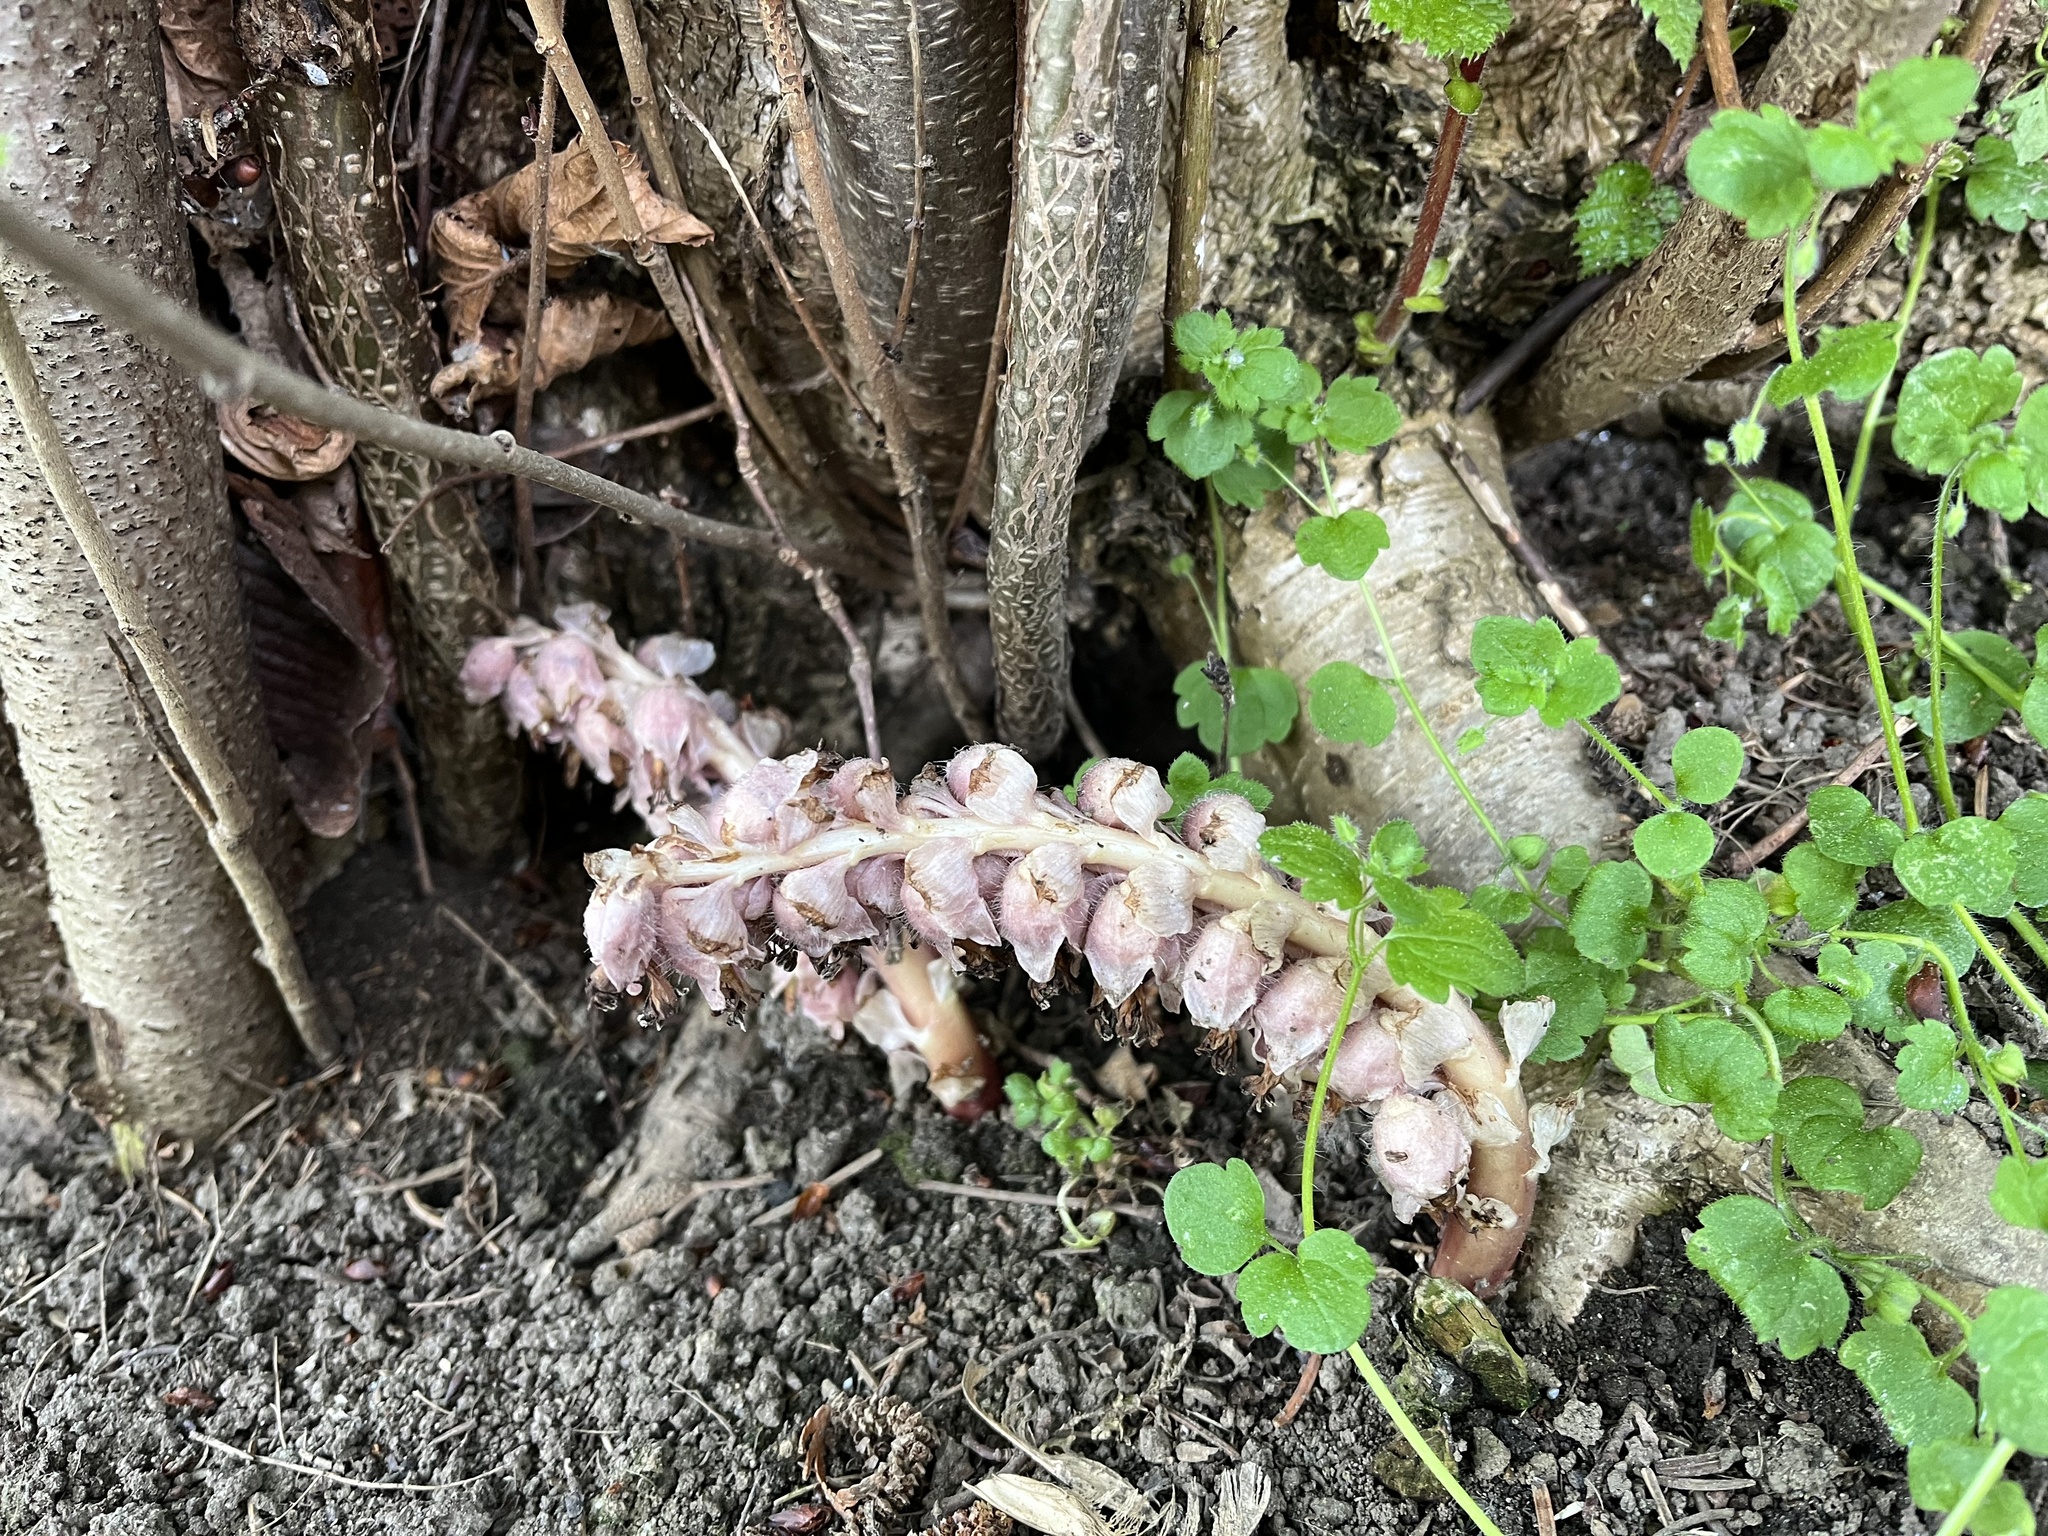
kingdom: Plantae
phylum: Tracheophyta
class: Magnoliopsida
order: Lamiales
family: Orobanchaceae
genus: Lathraea
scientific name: Lathraea squamaria
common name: Toothwort
